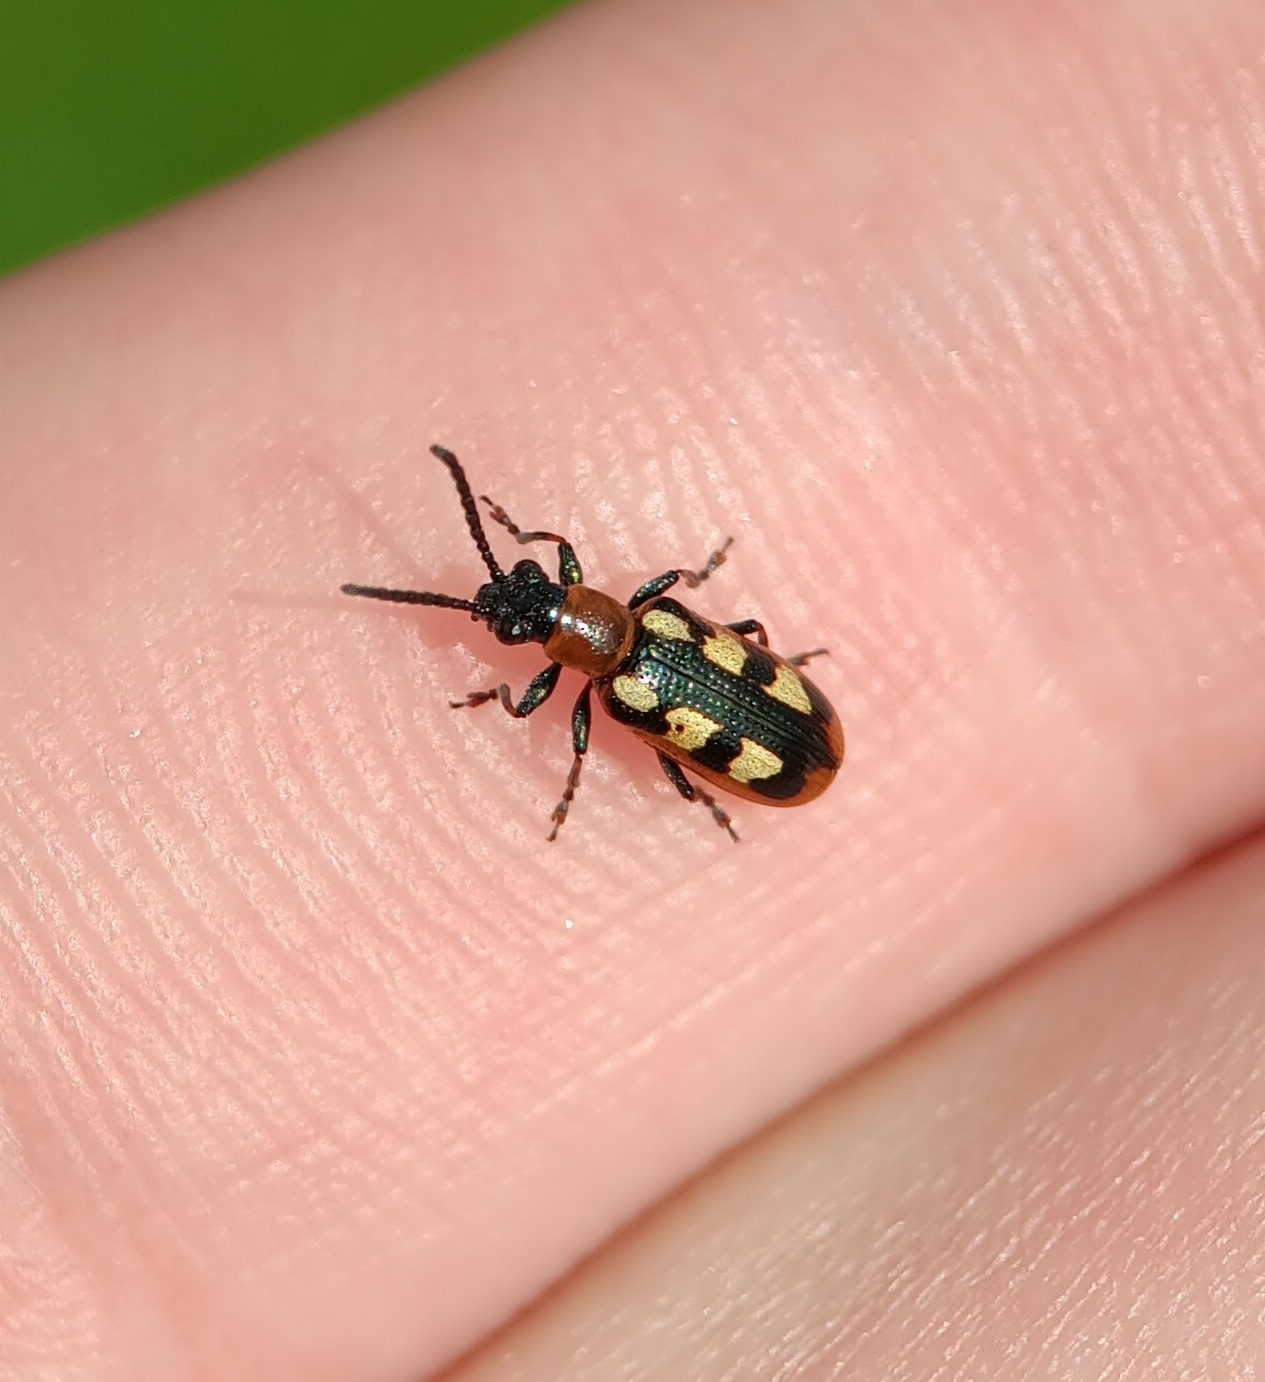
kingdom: Animalia
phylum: Arthropoda
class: Insecta
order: Coleoptera
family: Chrysomelidae
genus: Crioceris
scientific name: Crioceris asparagi
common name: Asparagus beetle
